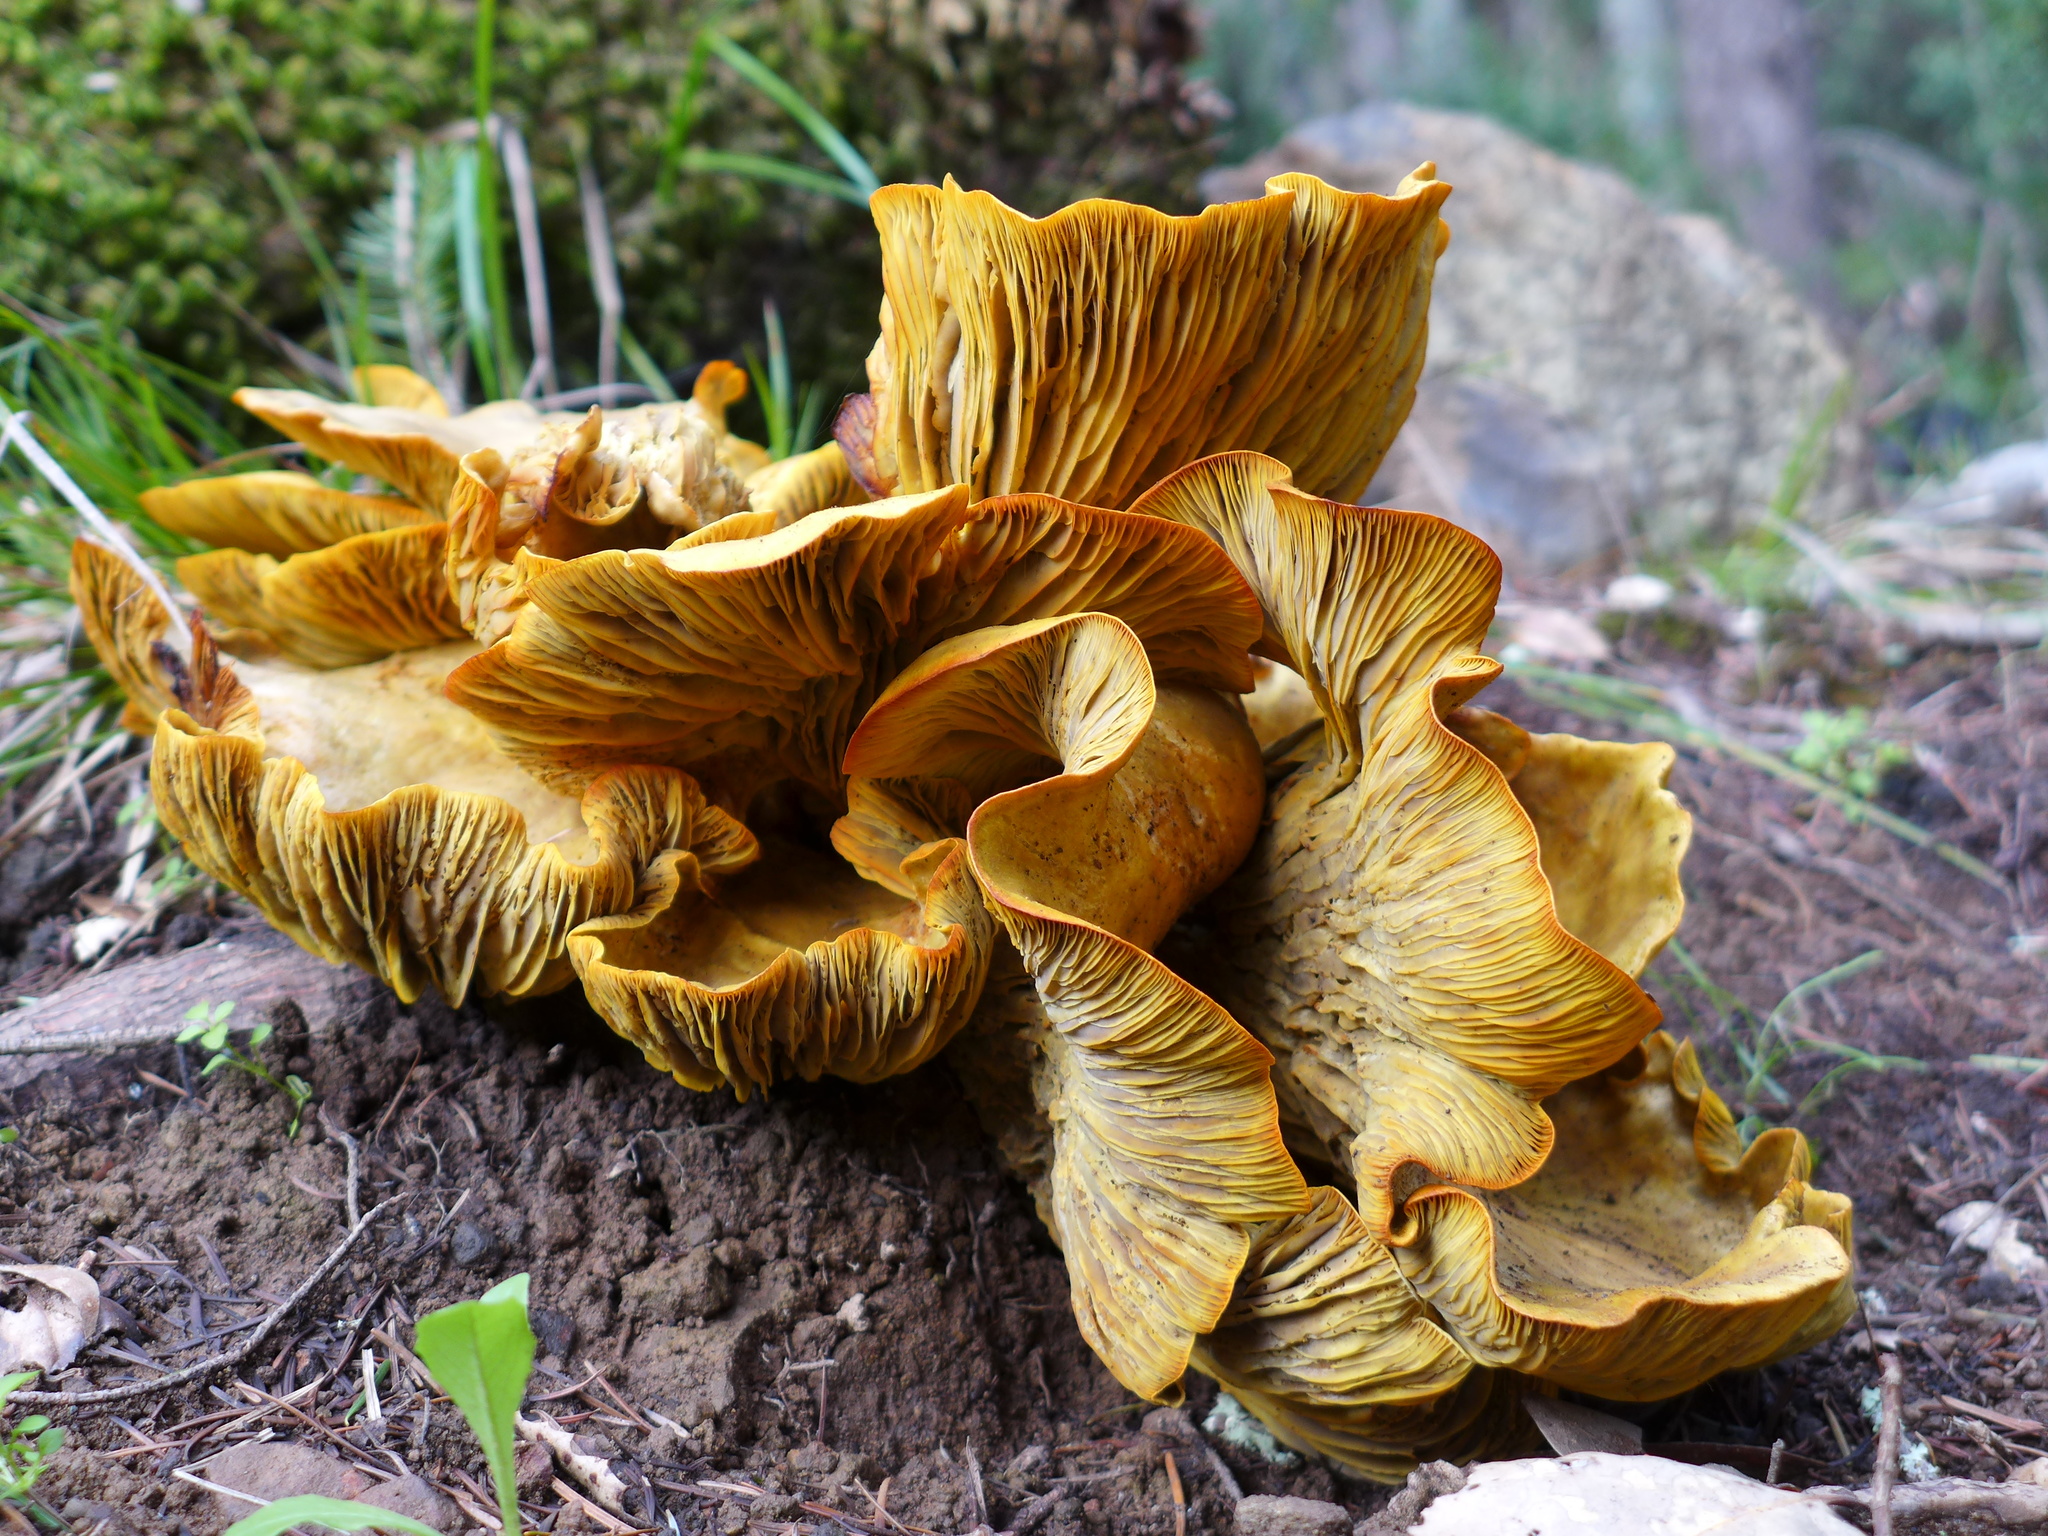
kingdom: Fungi
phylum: Basidiomycota
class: Agaricomycetes
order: Agaricales
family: Omphalotaceae
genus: Omphalotus
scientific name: Omphalotus olivascens
